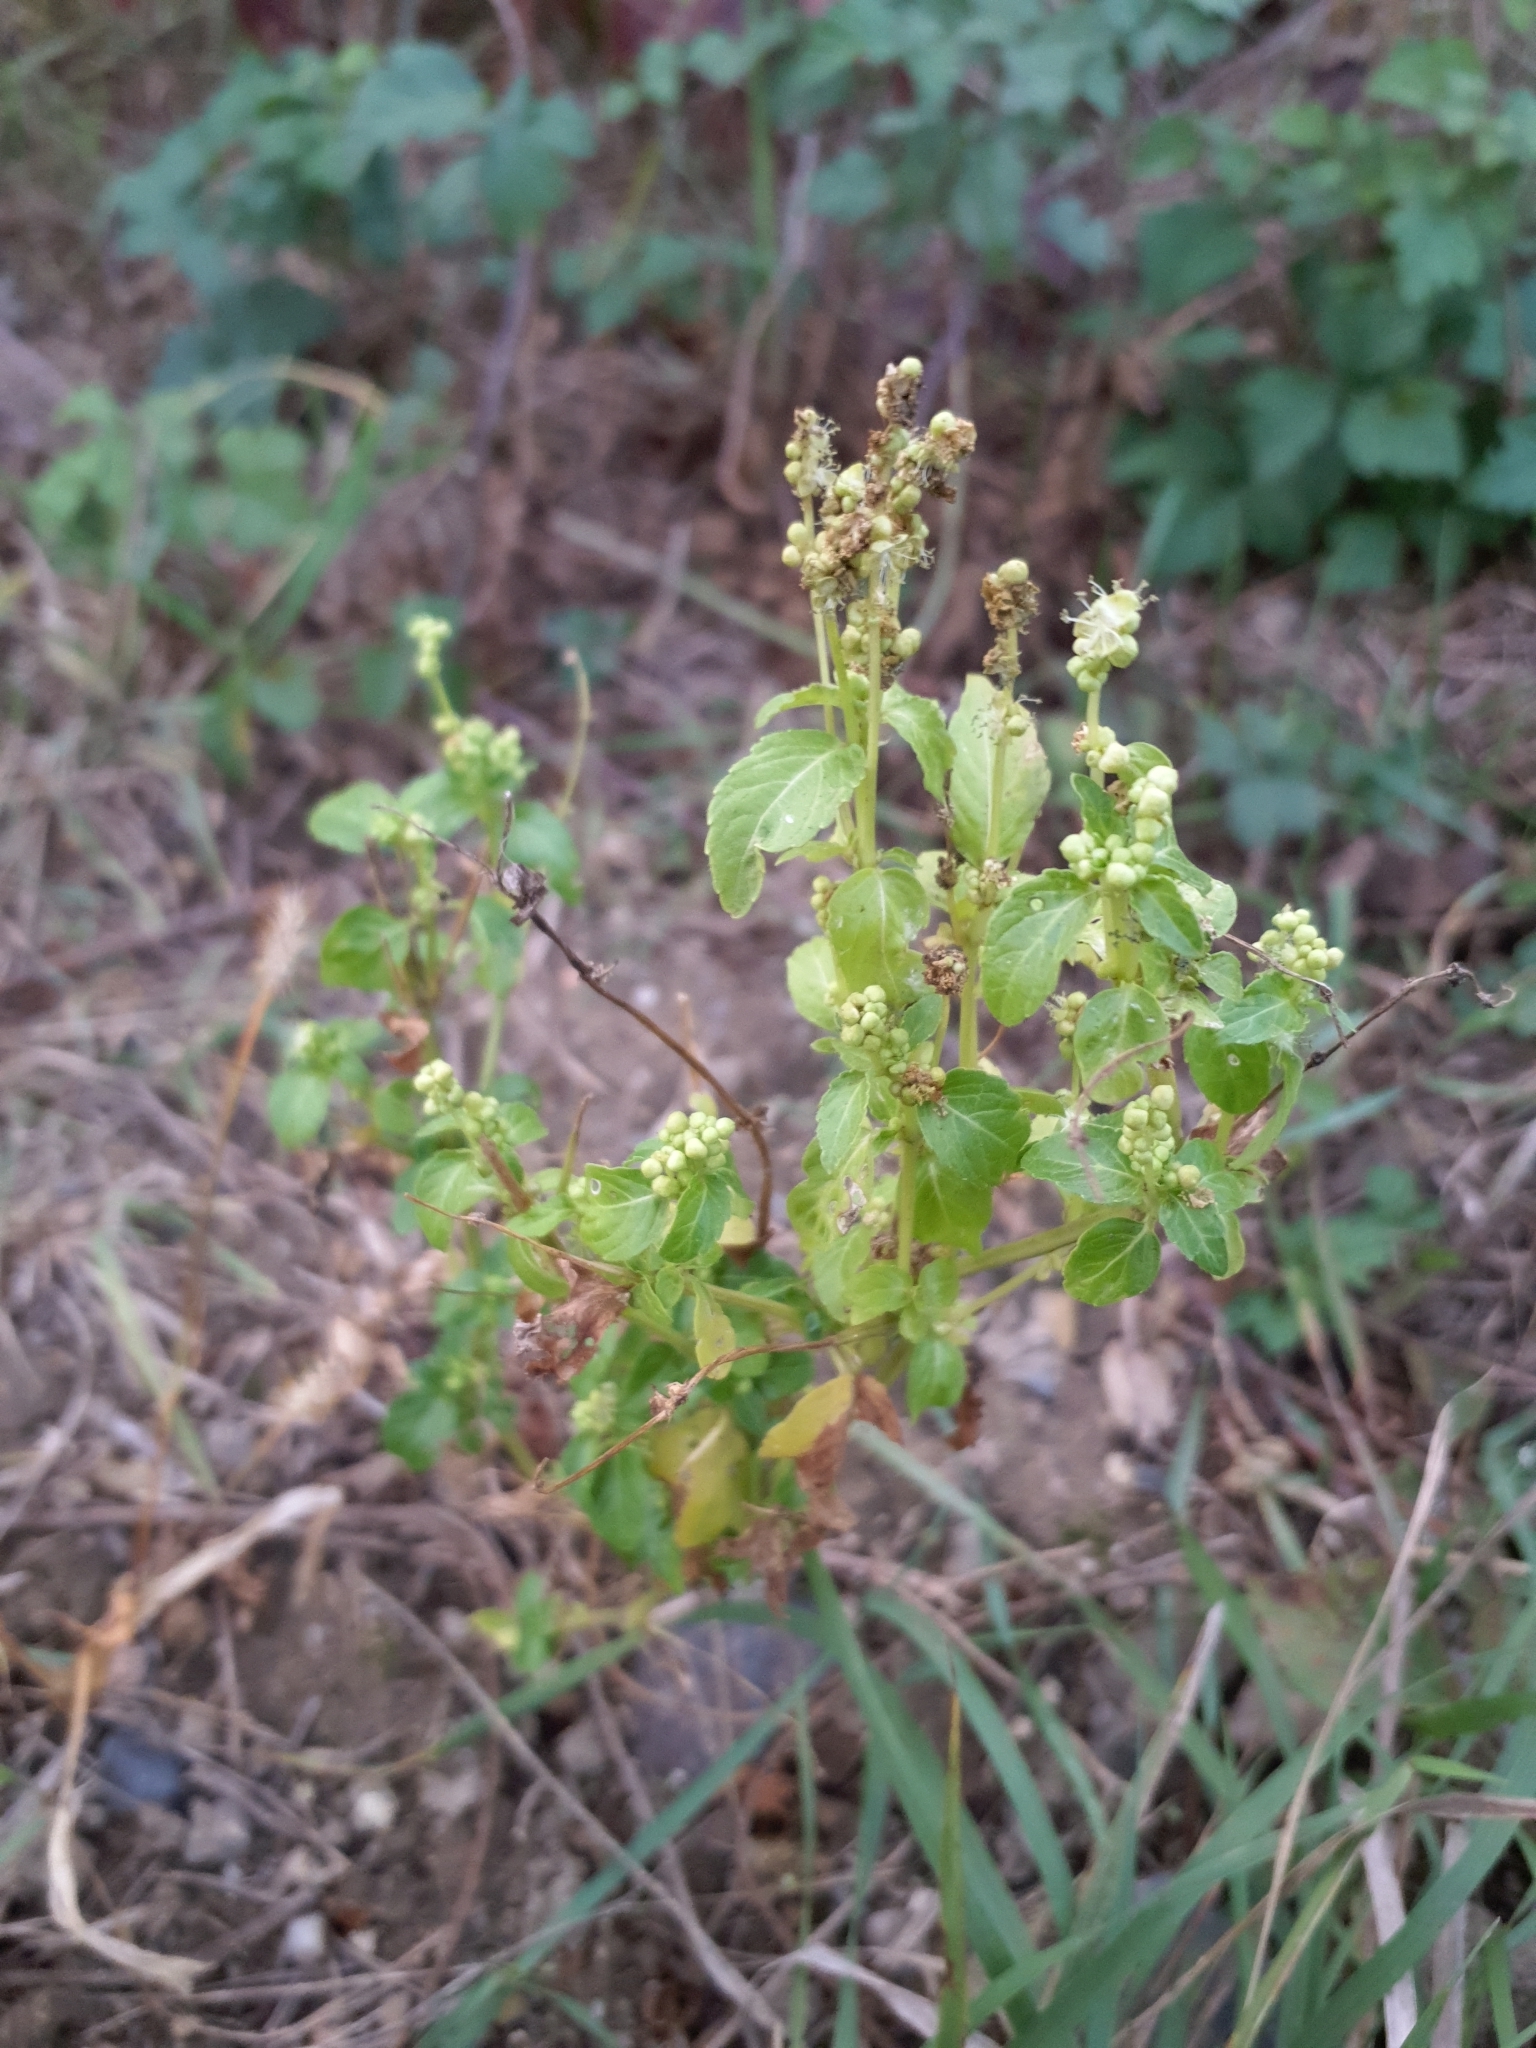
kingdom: Plantae
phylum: Tracheophyta
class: Magnoliopsida
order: Malpighiales
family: Euphorbiaceae
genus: Mercurialis
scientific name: Mercurialis annua
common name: Annual mercury
